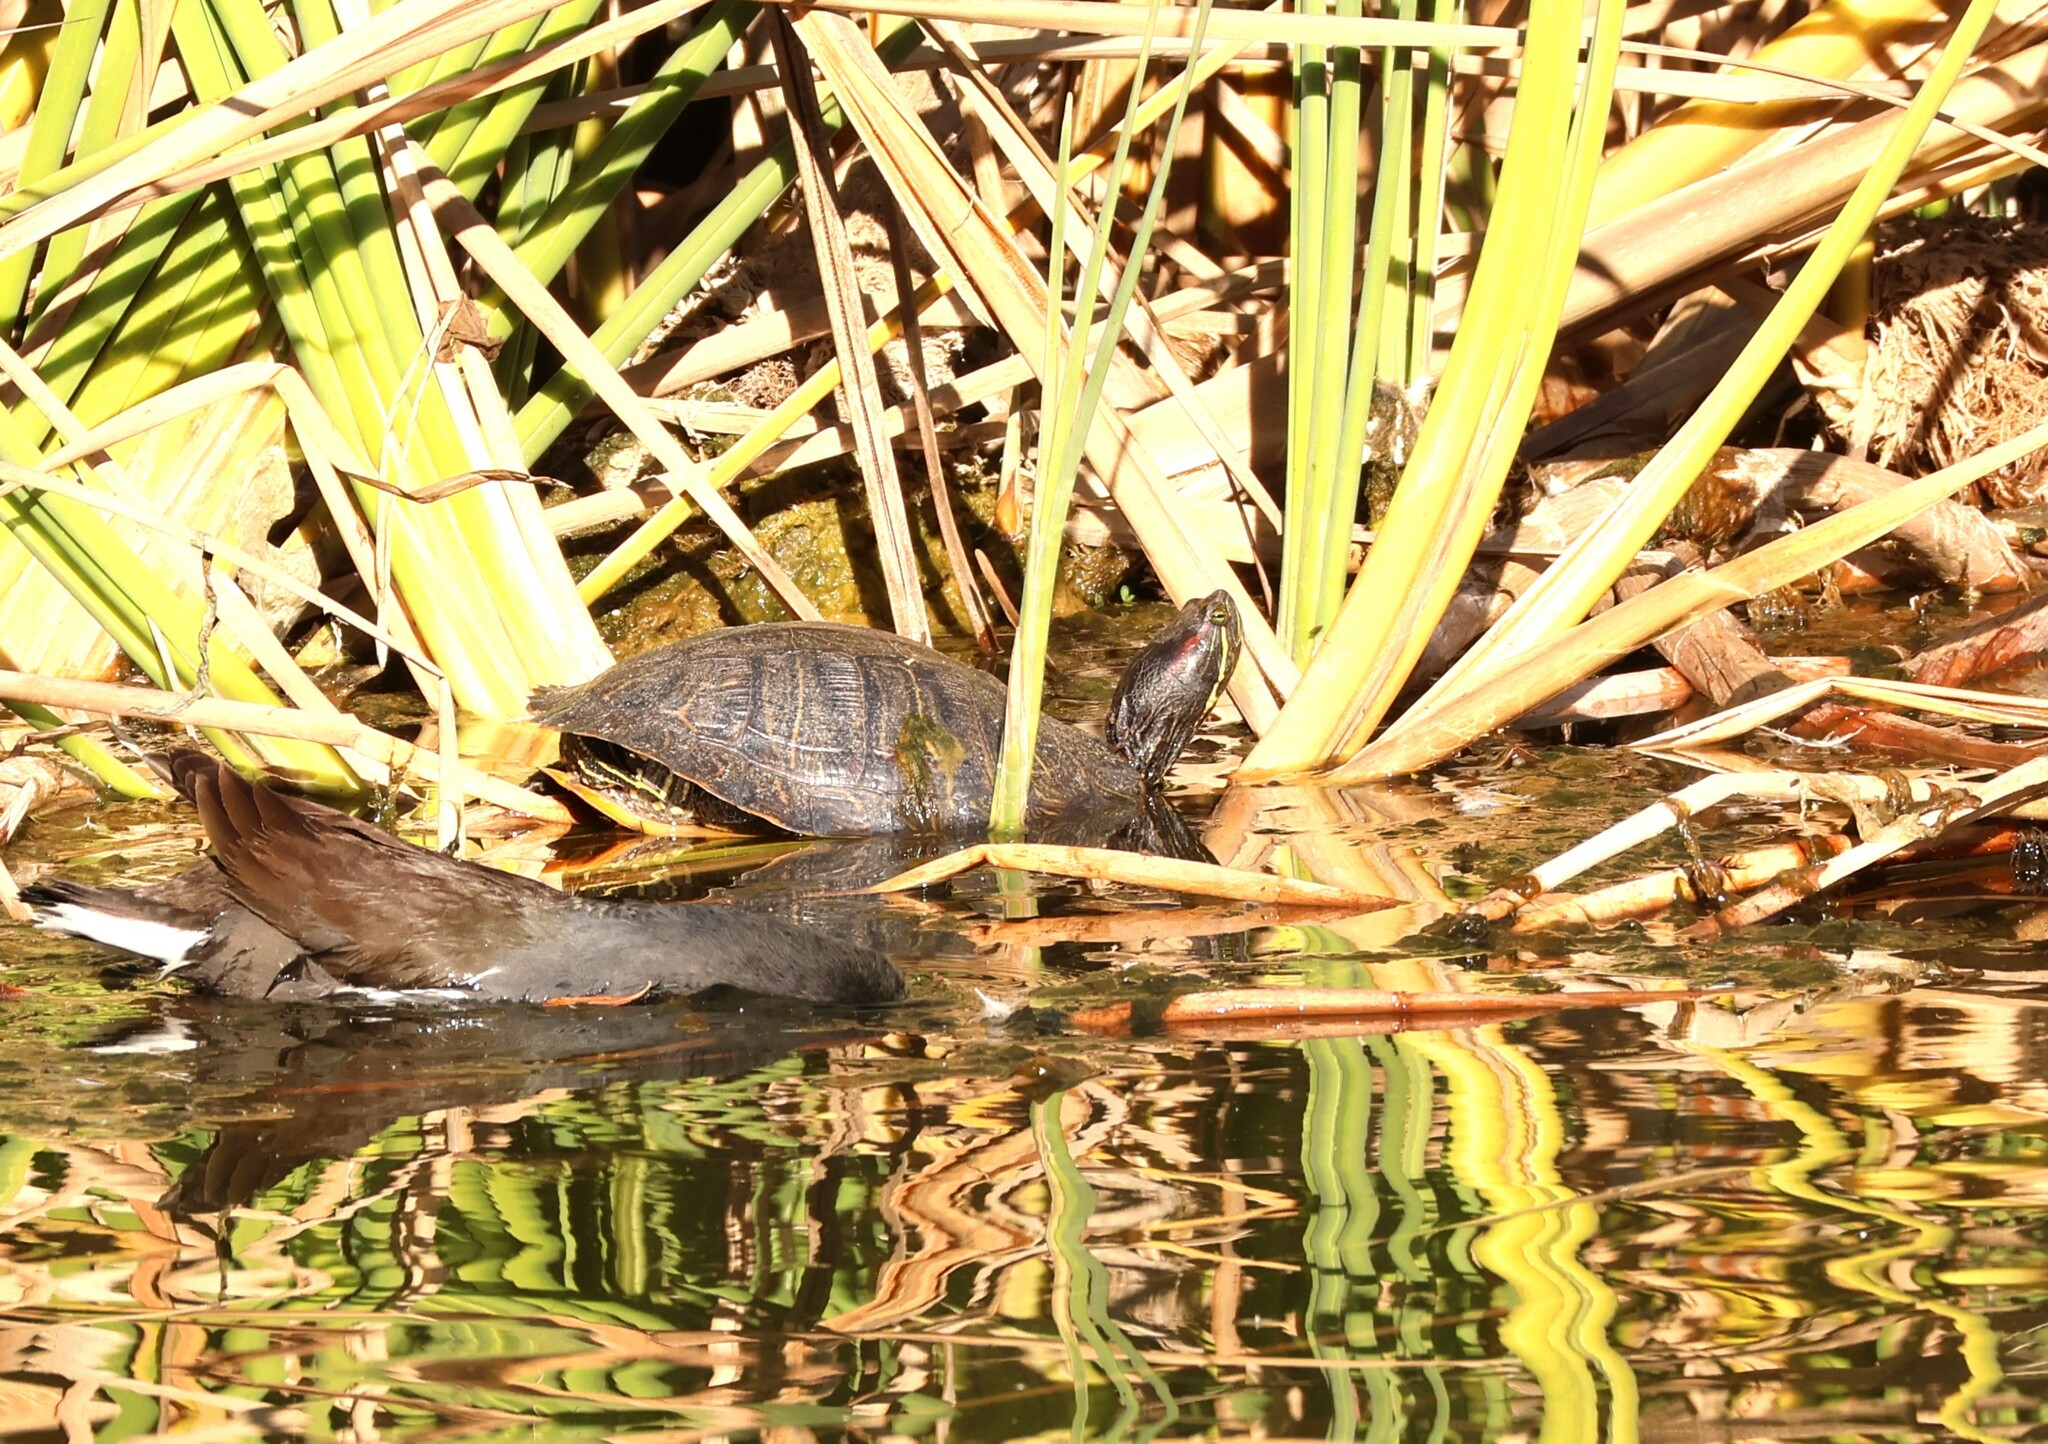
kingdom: Animalia
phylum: Chordata
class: Testudines
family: Emydidae
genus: Trachemys
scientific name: Trachemys scripta
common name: Slider
